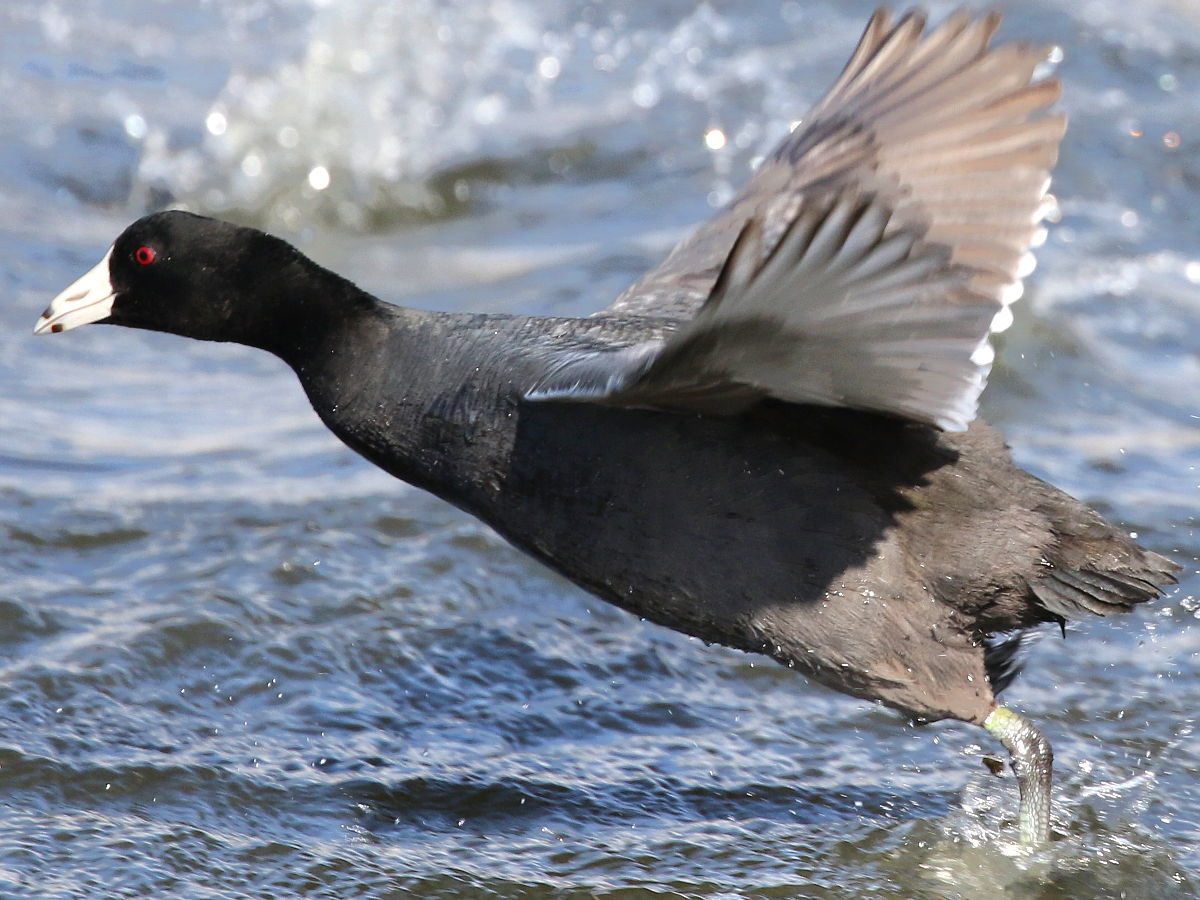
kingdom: Animalia
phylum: Chordata
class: Aves
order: Gruiformes
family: Rallidae
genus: Fulica
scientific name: Fulica americana
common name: American coot
